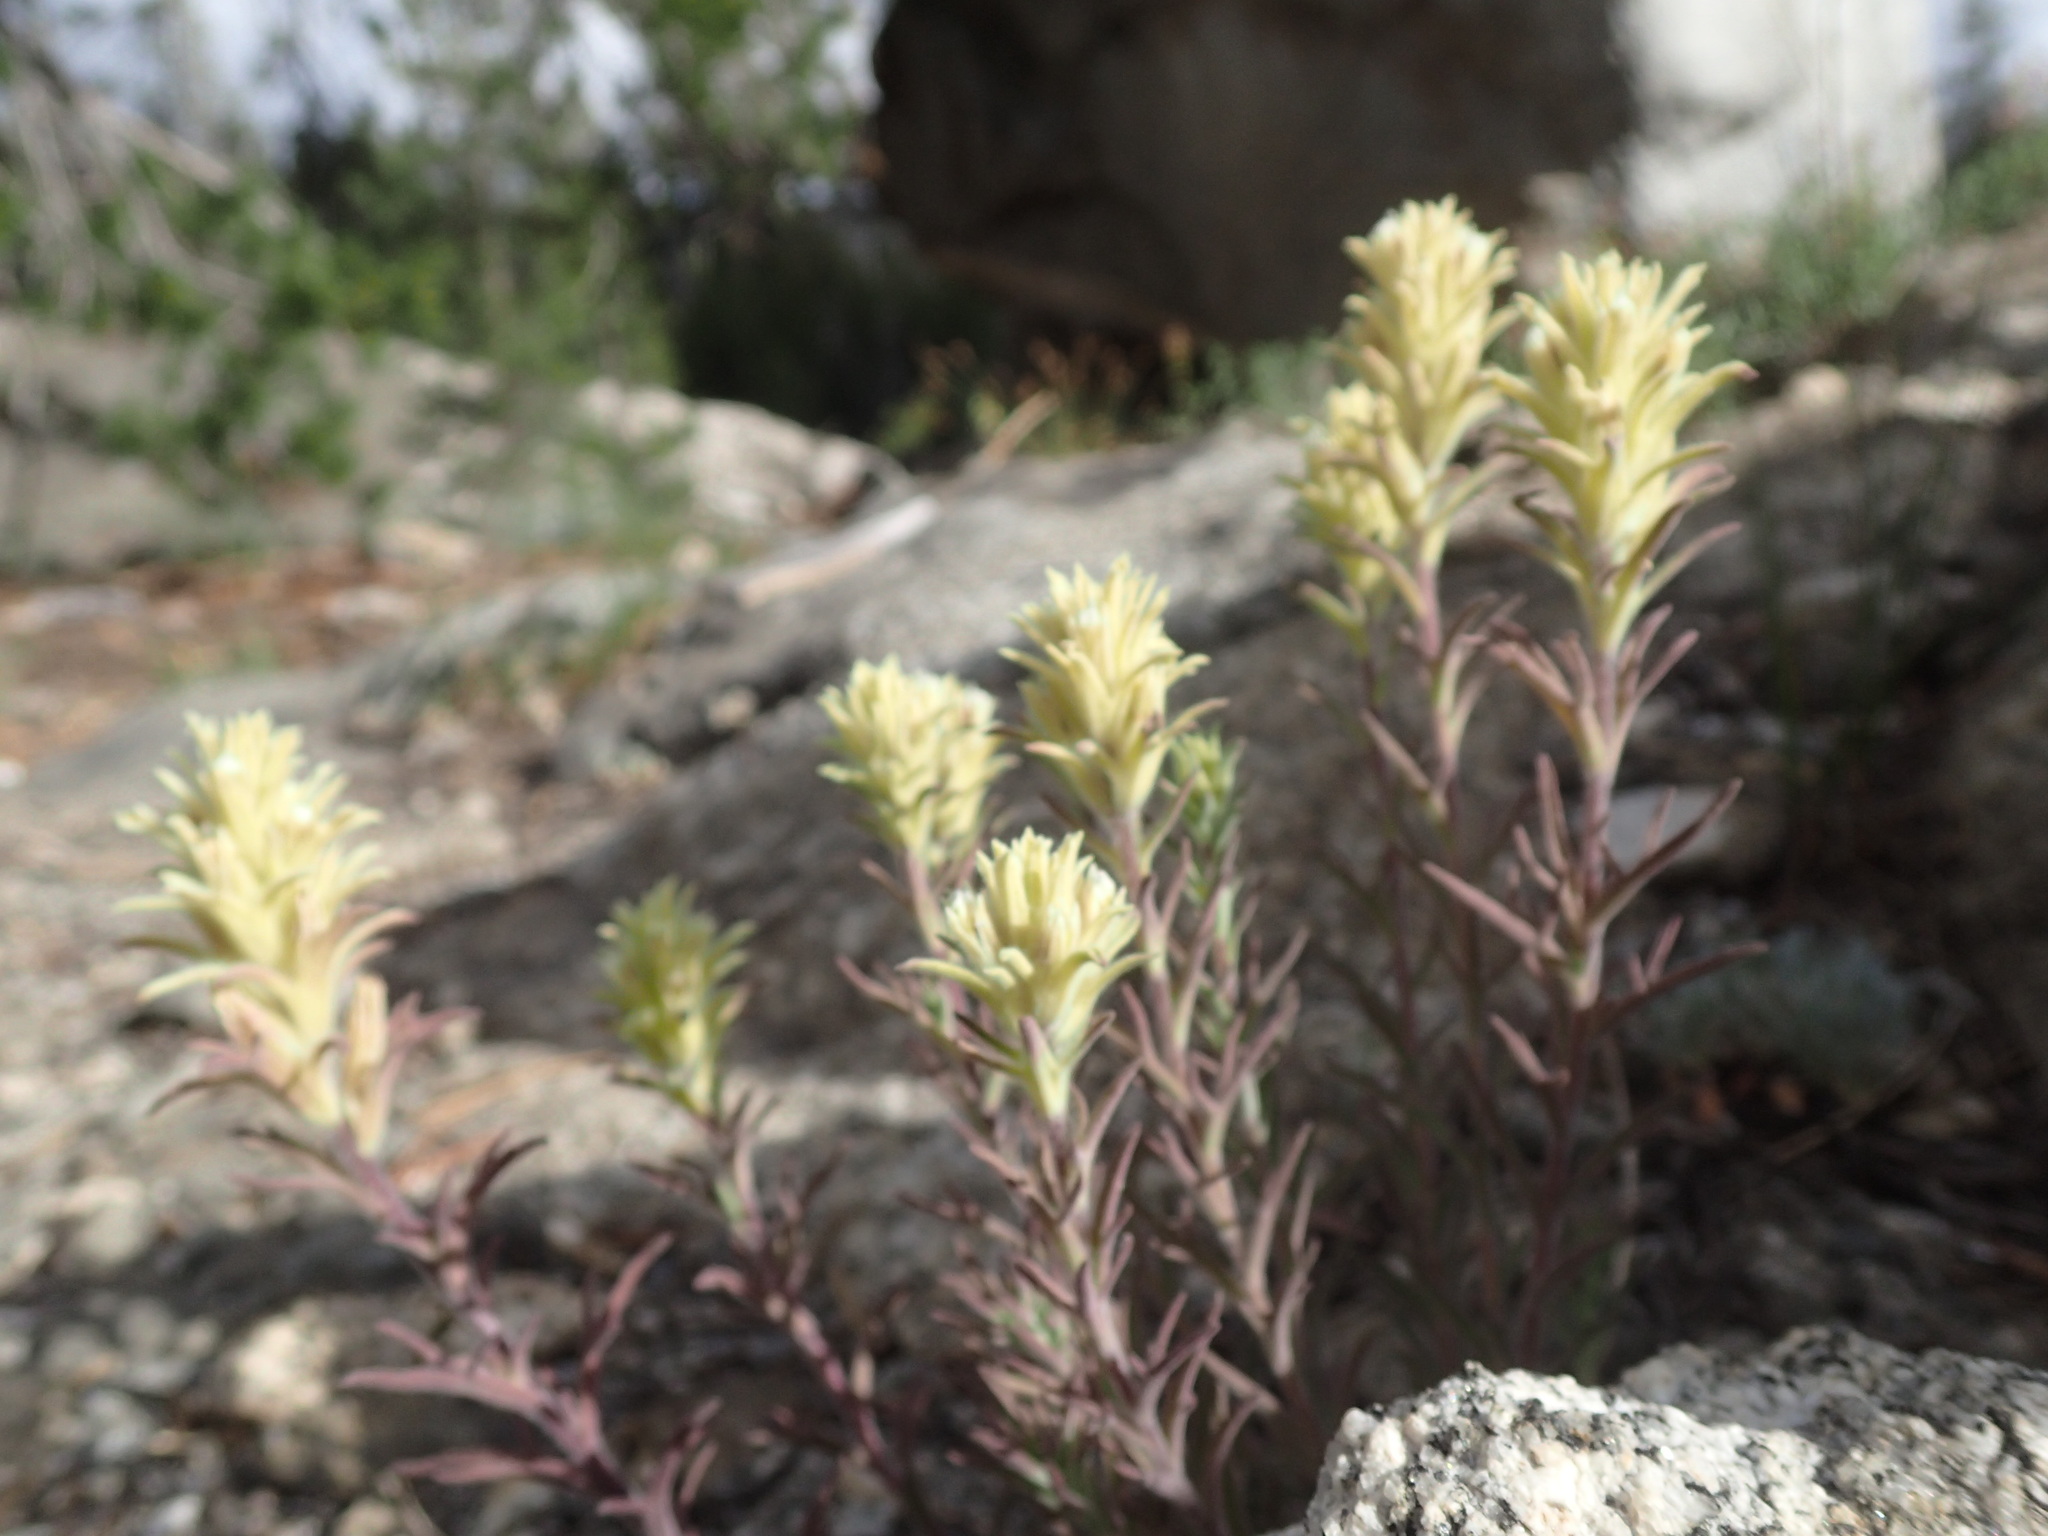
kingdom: Plantae
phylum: Tracheophyta
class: Magnoliopsida
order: Lamiales
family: Orobanchaceae
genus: Castilleja
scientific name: Castilleja nana
